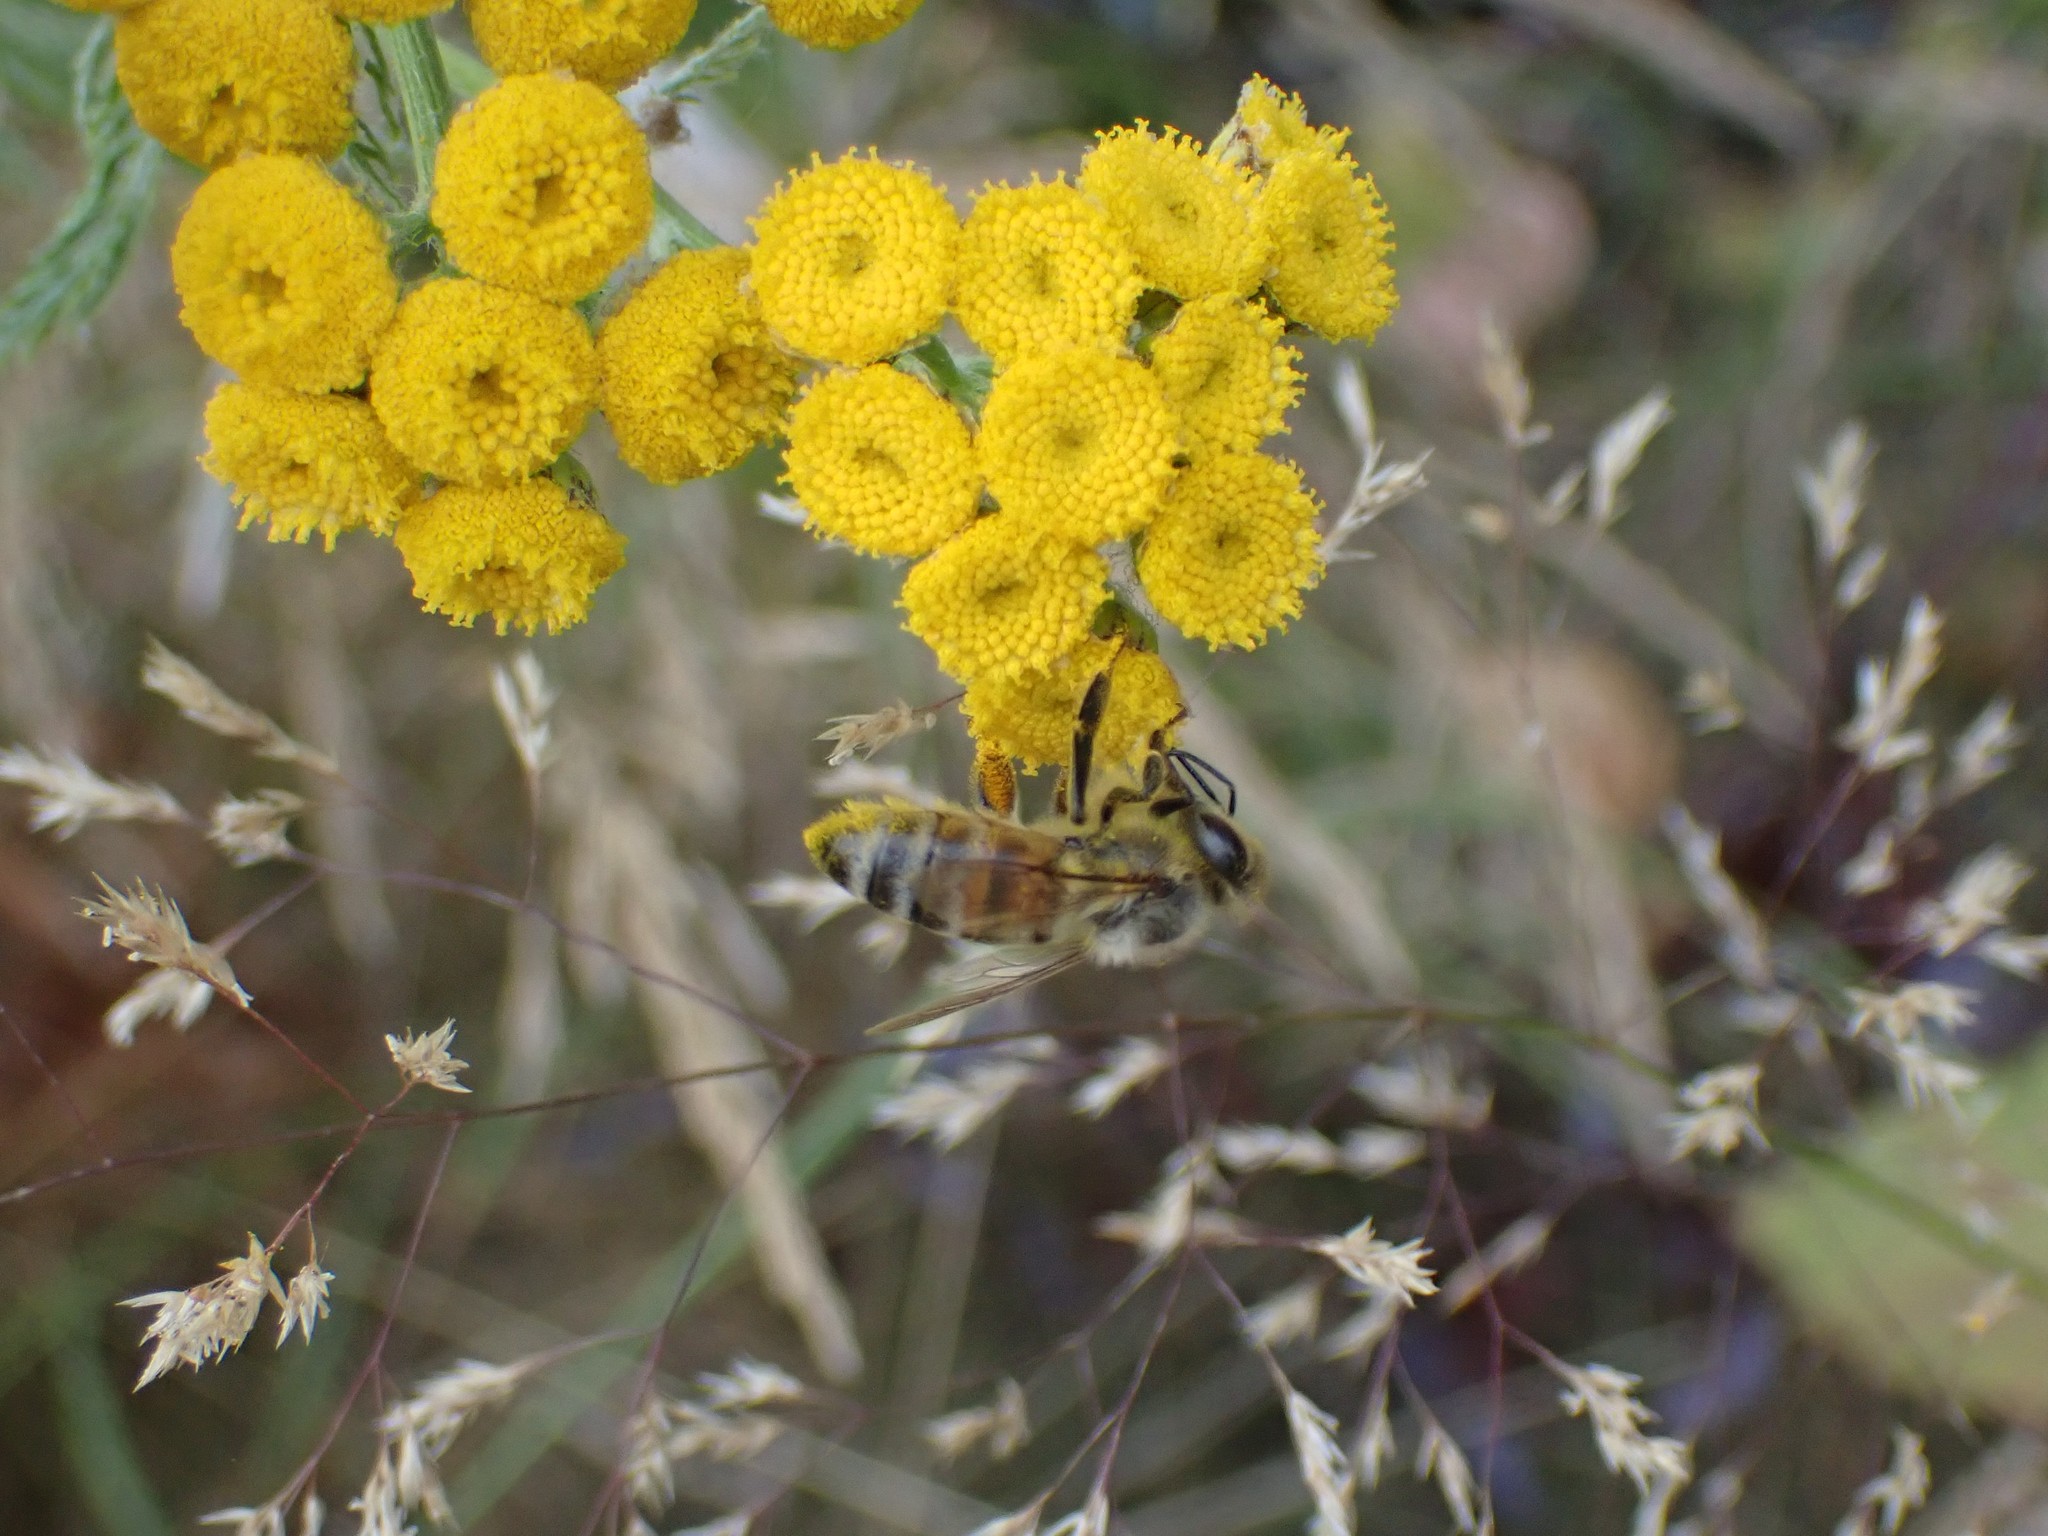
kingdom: Animalia
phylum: Arthropoda
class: Insecta
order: Hymenoptera
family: Apidae
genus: Apis
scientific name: Apis mellifera
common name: Honey bee
